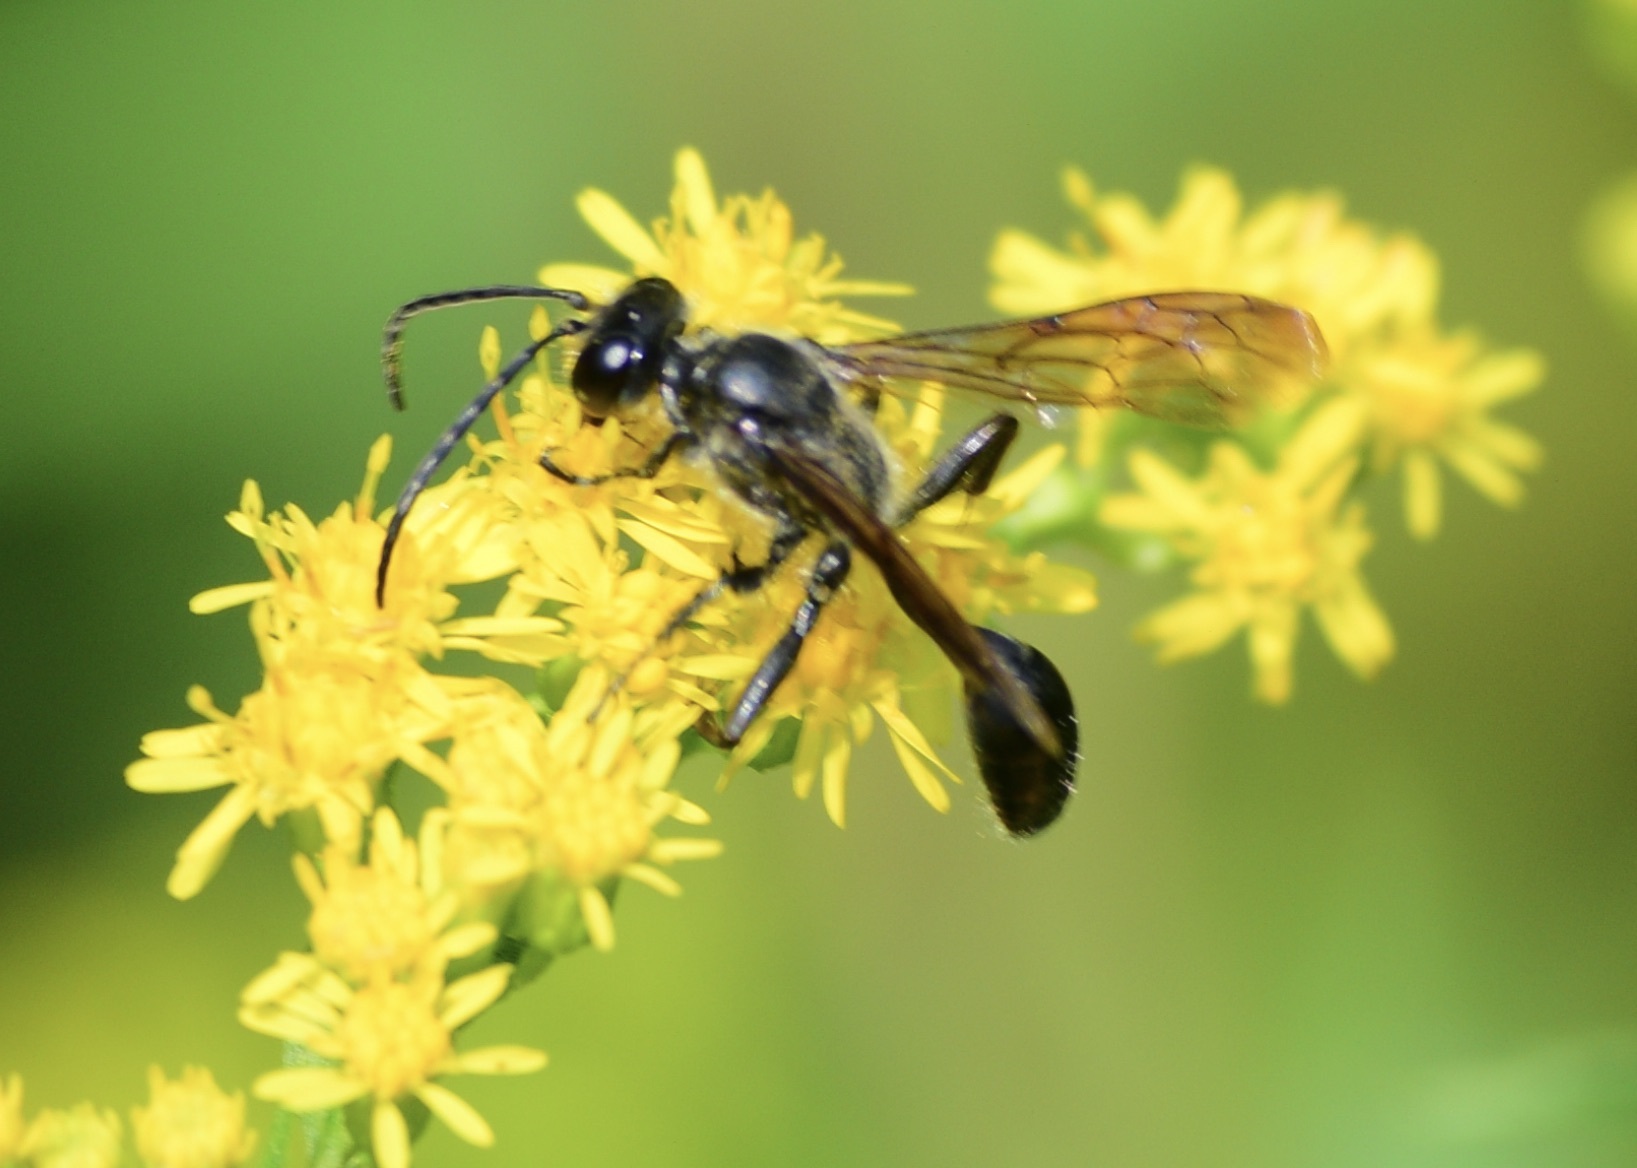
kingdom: Animalia
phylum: Arthropoda
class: Insecta
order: Hymenoptera
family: Sphecidae
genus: Isodontia
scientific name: Isodontia mexicana
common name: Mud dauber
